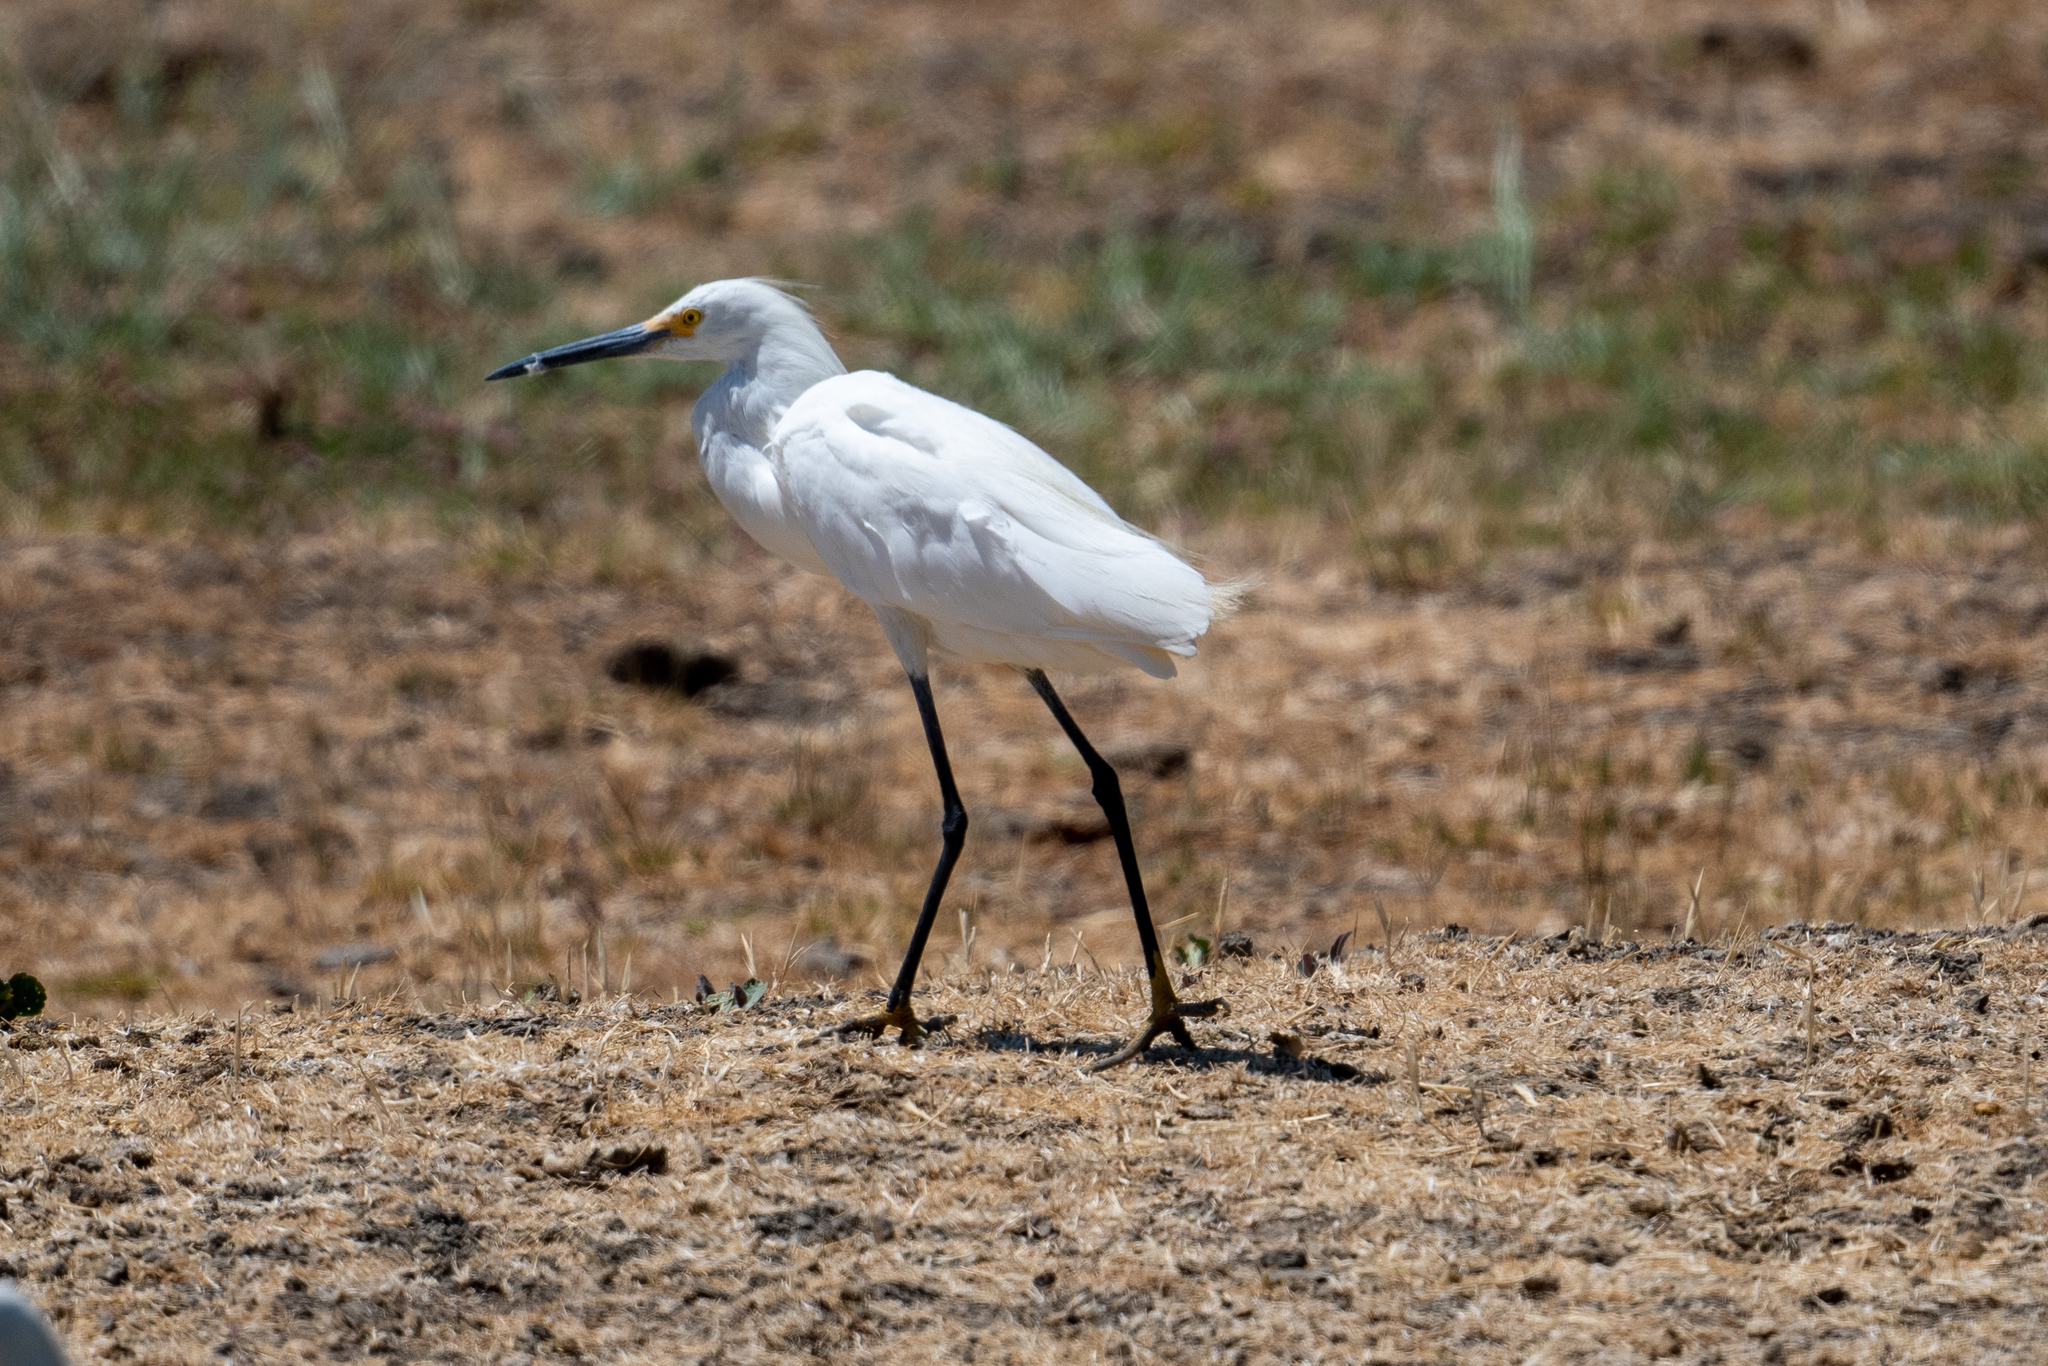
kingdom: Animalia
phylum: Chordata
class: Aves
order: Pelecaniformes
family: Ardeidae
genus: Egretta
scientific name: Egretta thula
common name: Snowy egret
